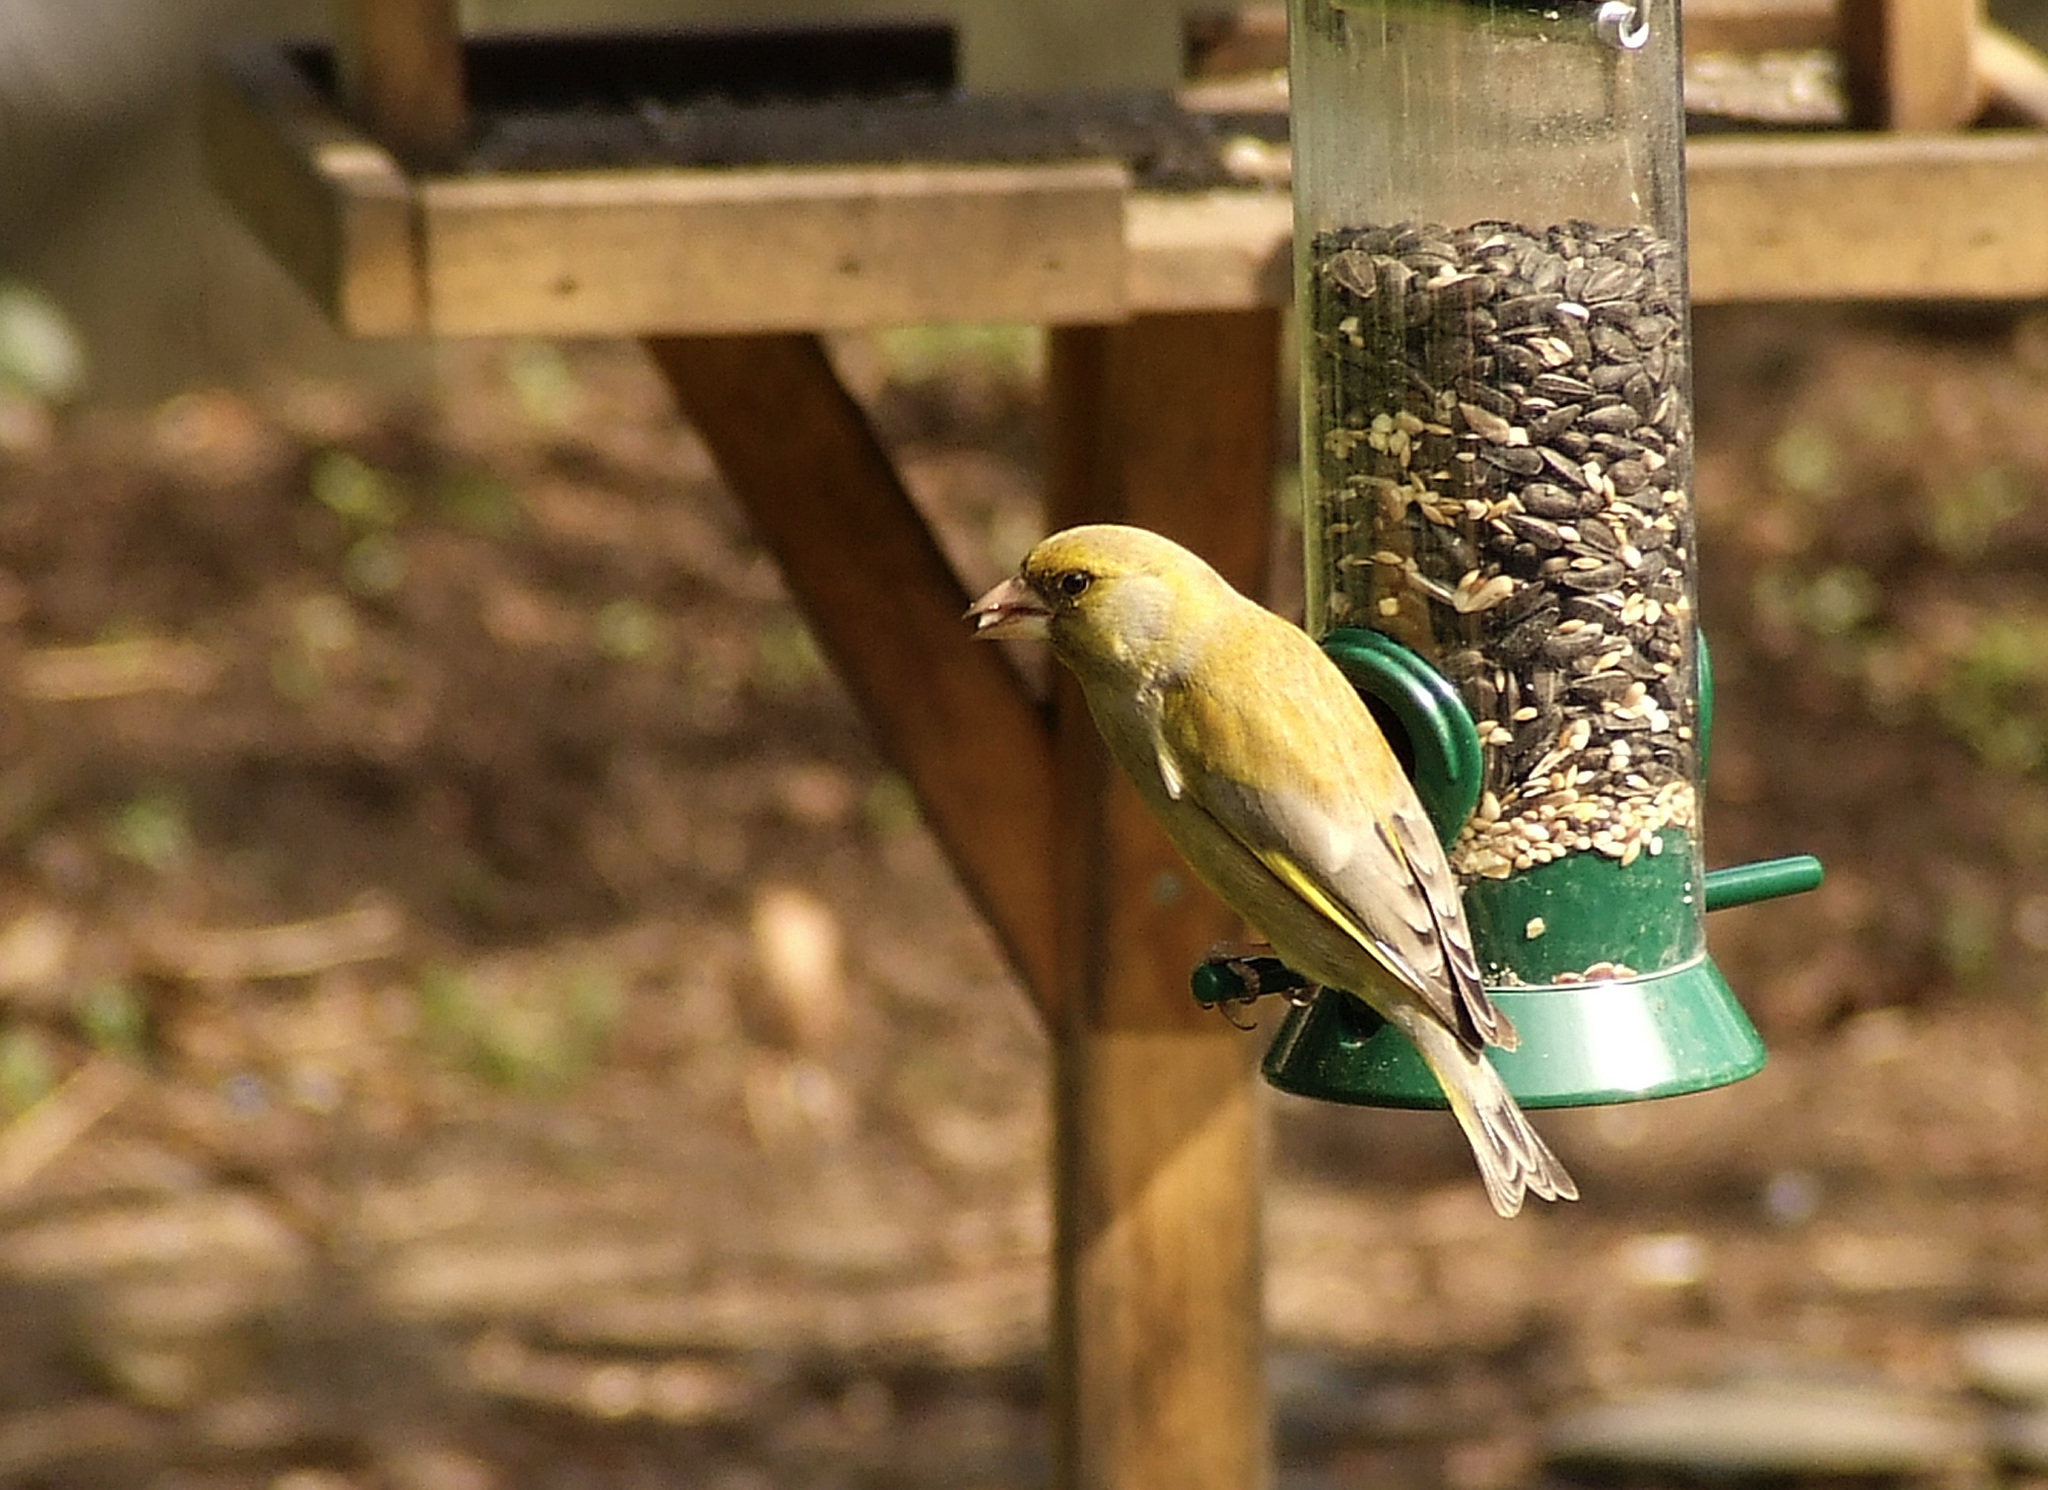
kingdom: Plantae
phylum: Tracheophyta
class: Liliopsida
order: Poales
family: Poaceae
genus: Chloris
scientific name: Chloris chloris
